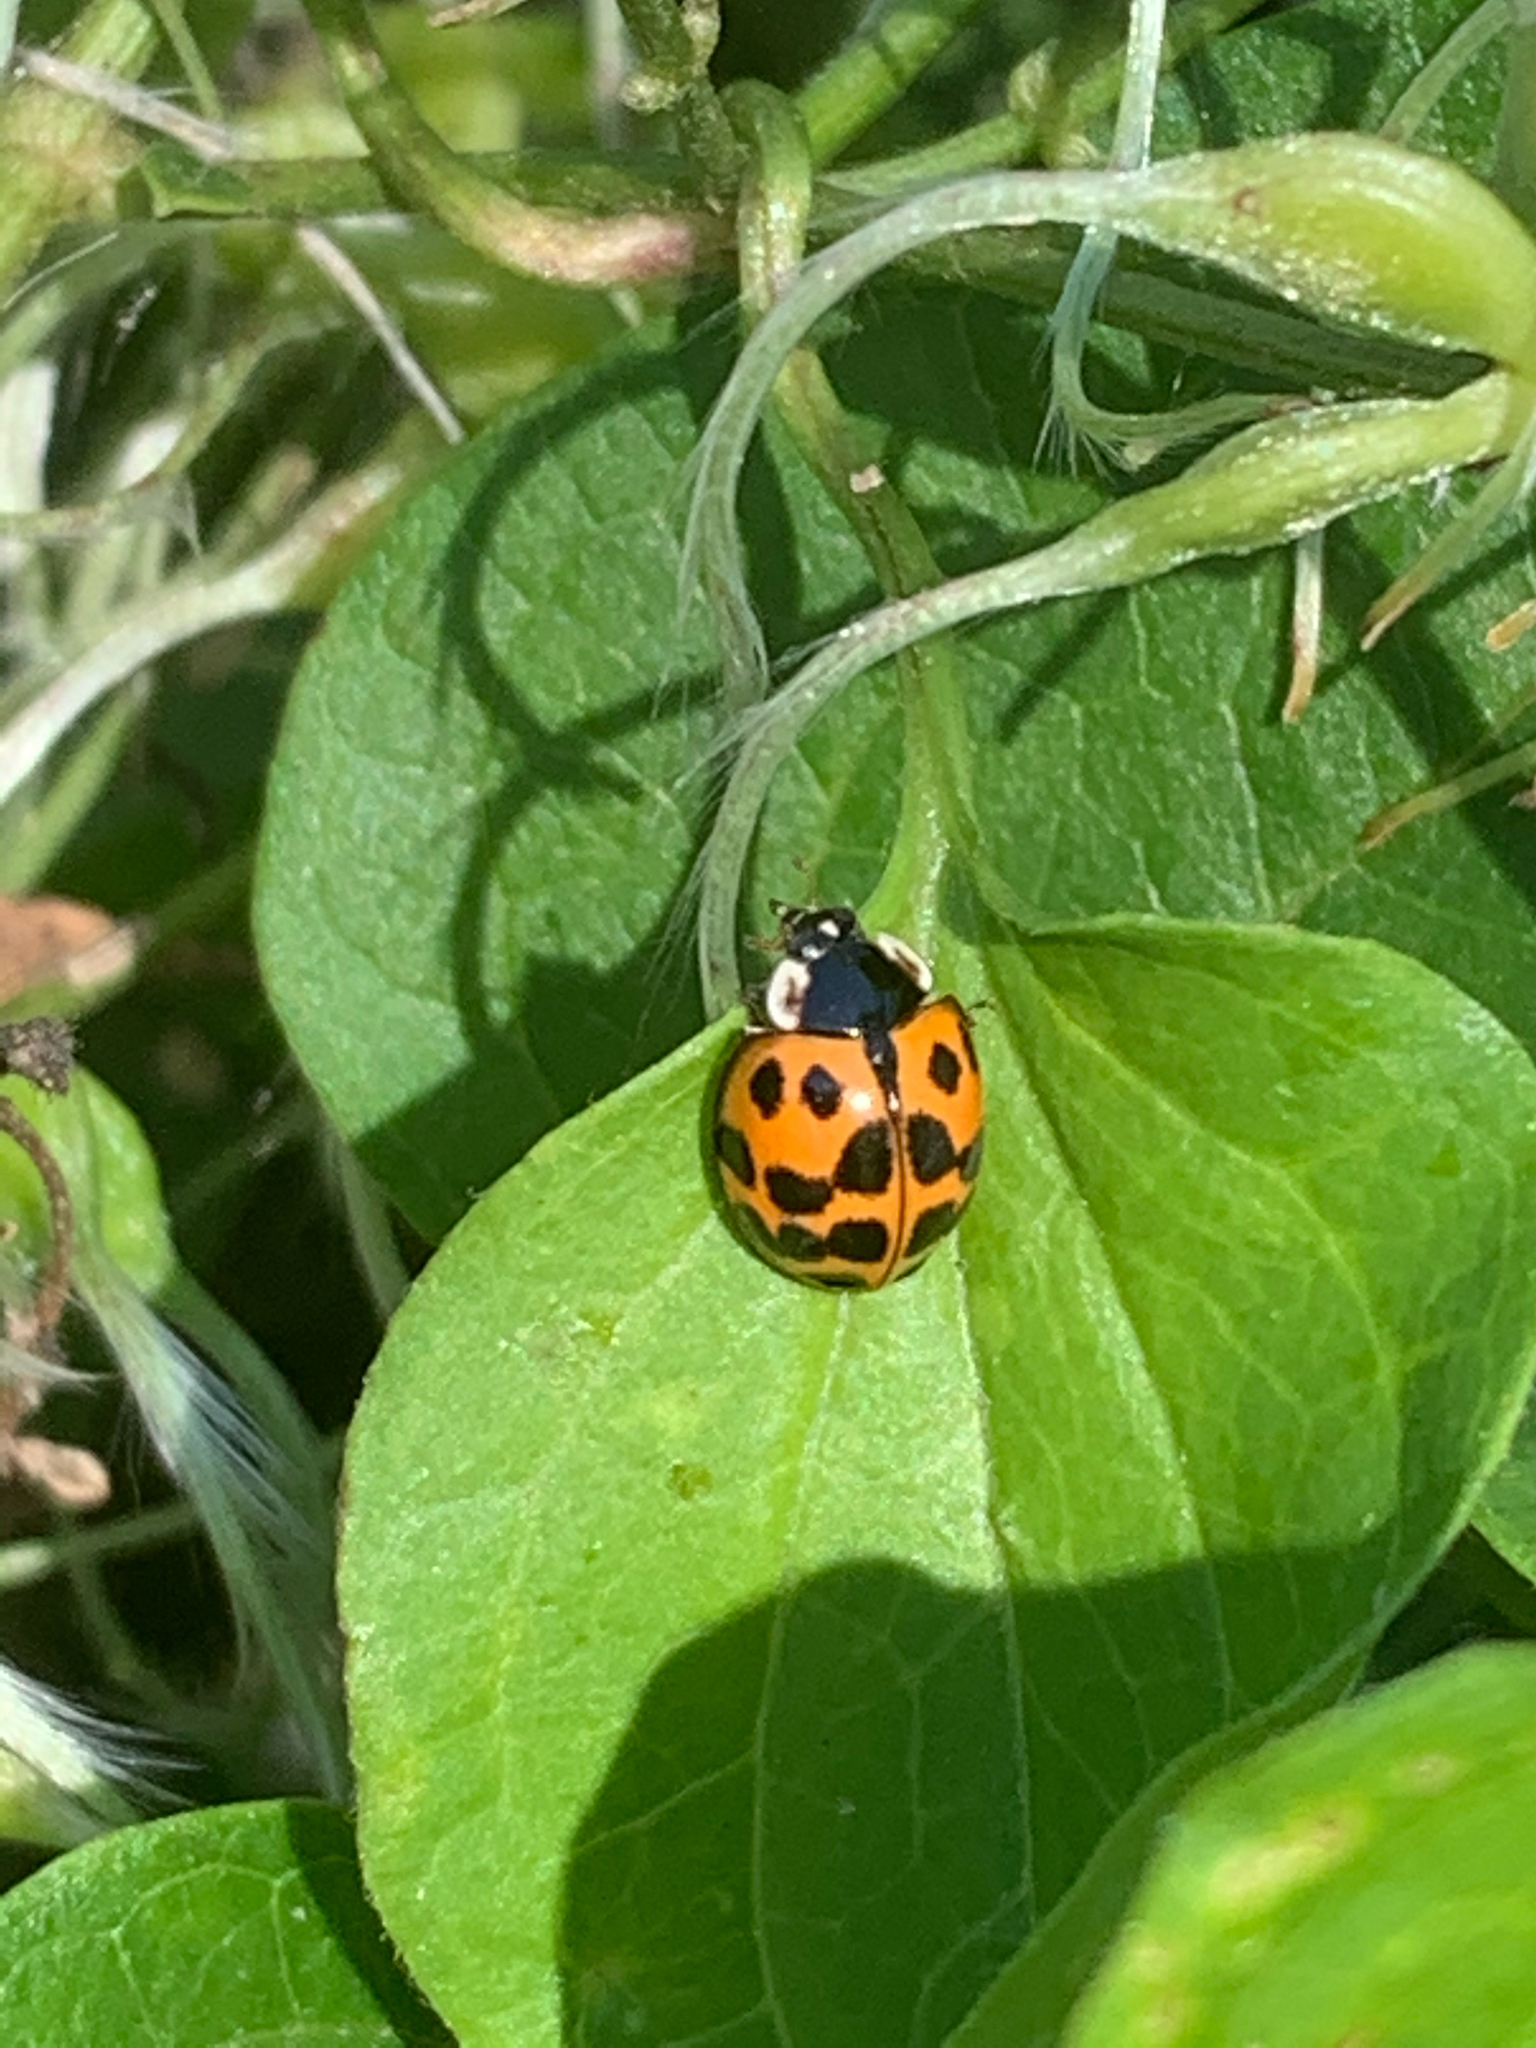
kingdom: Animalia
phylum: Arthropoda
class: Insecta
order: Coleoptera
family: Coccinellidae
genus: Harmonia
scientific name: Harmonia axyridis
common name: Harlequin ladybird
